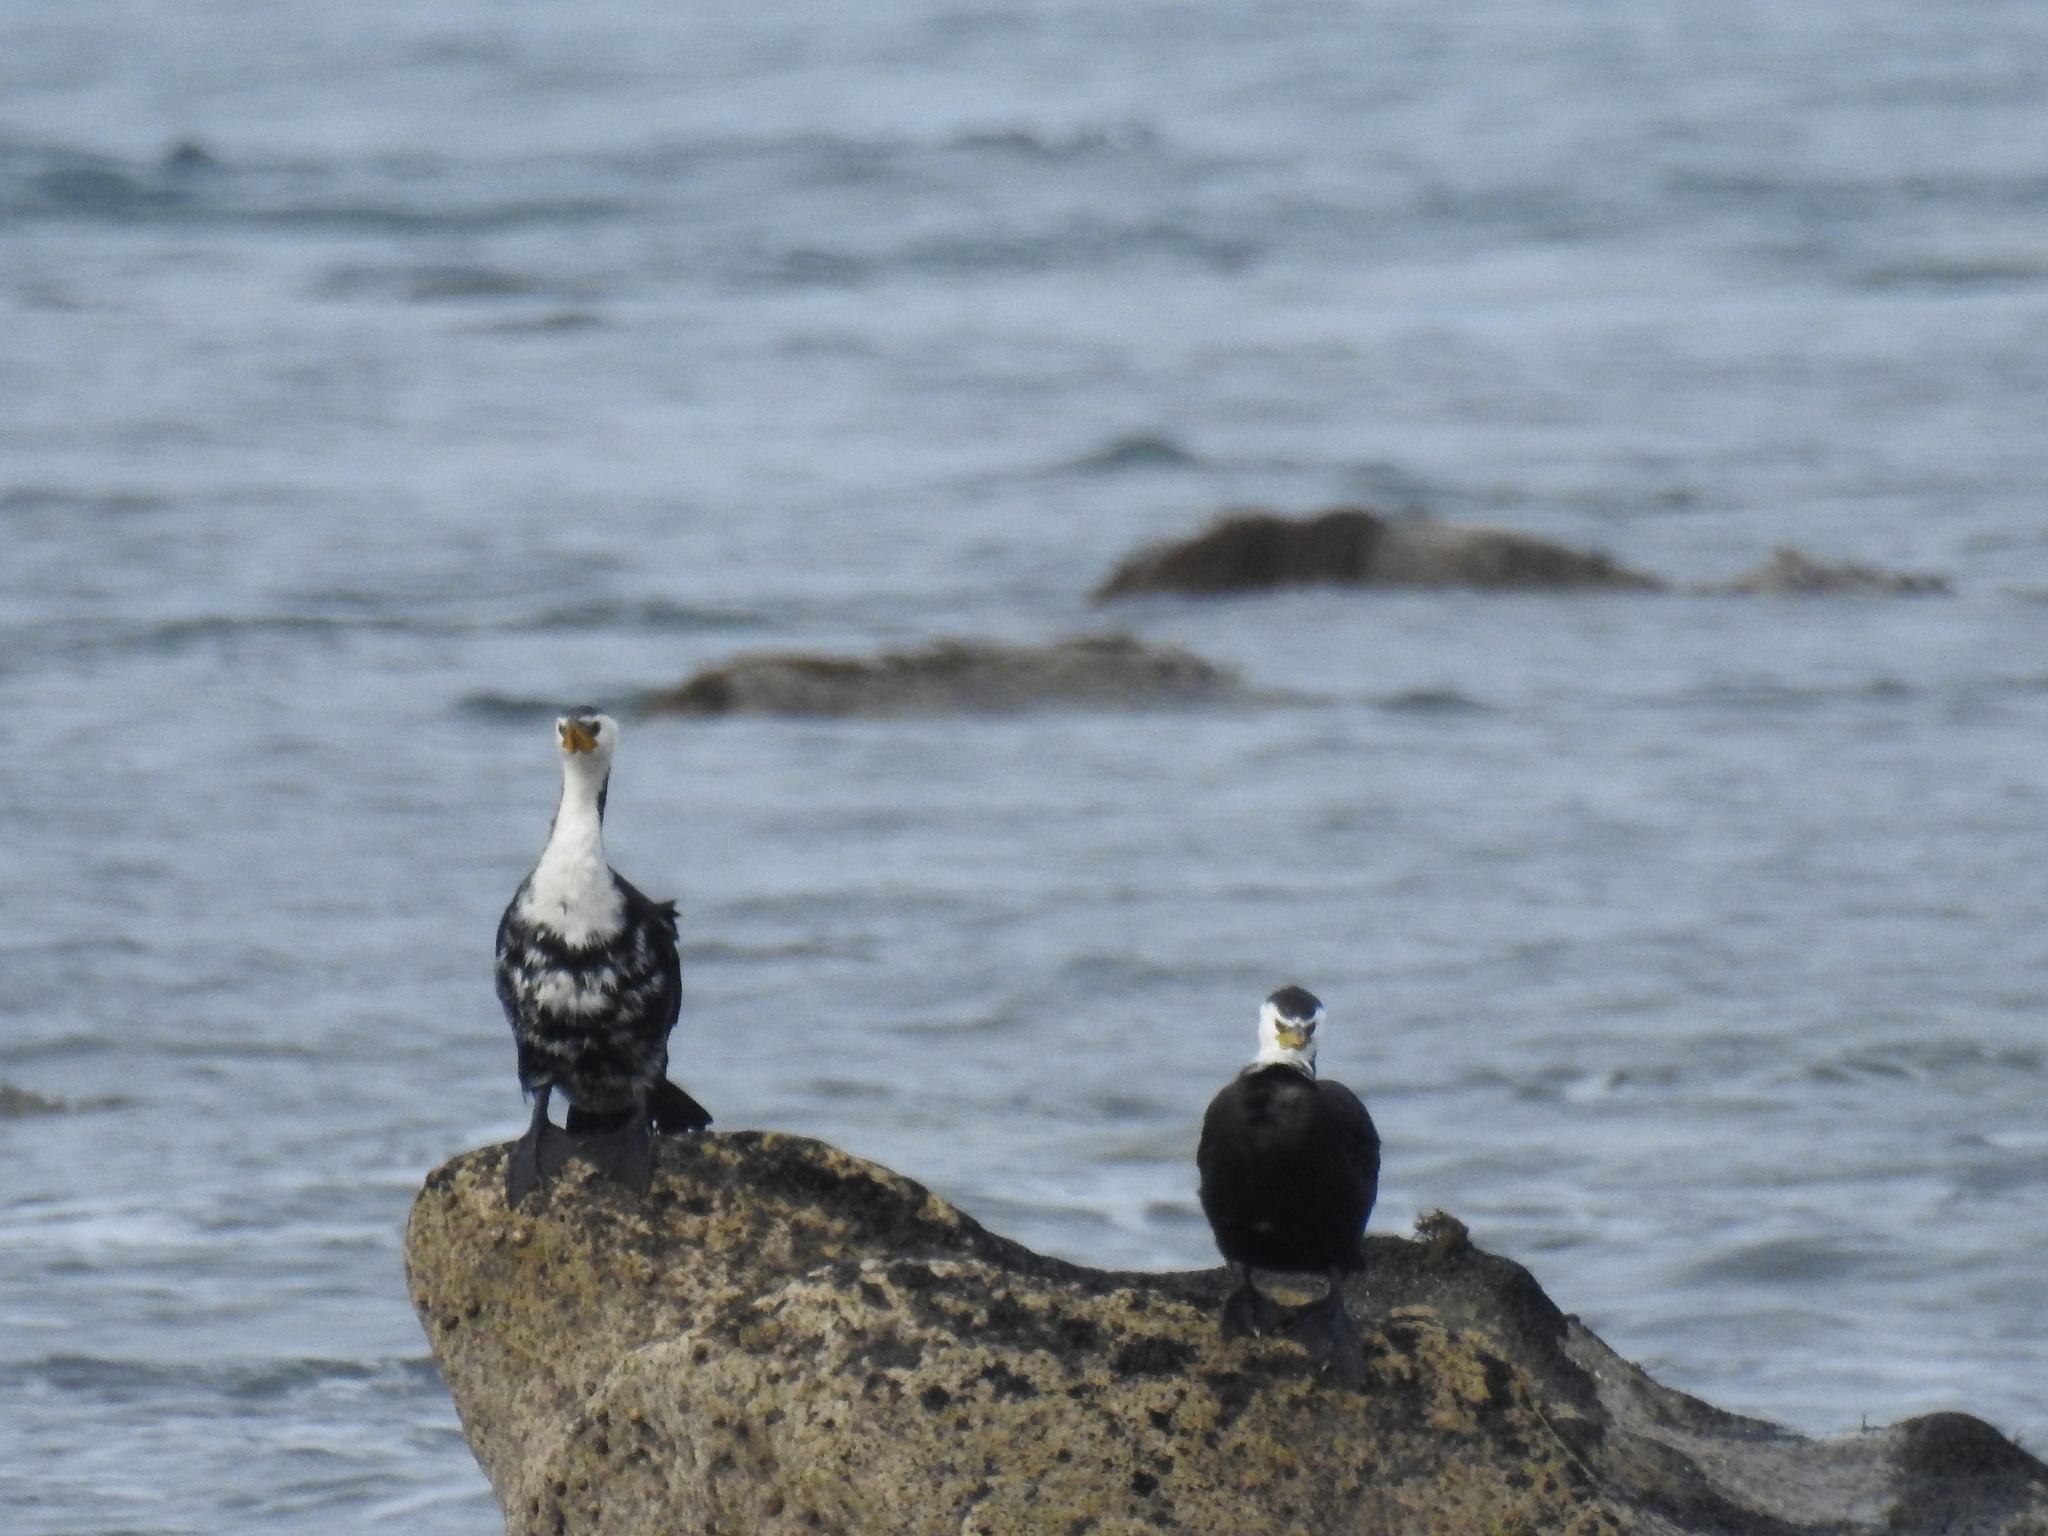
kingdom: Animalia
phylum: Chordata
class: Aves
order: Suliformes
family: Phalacrocoracidae
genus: Microcarbo
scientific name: Microcarbo melanoleucos
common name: Little pied cormorant
